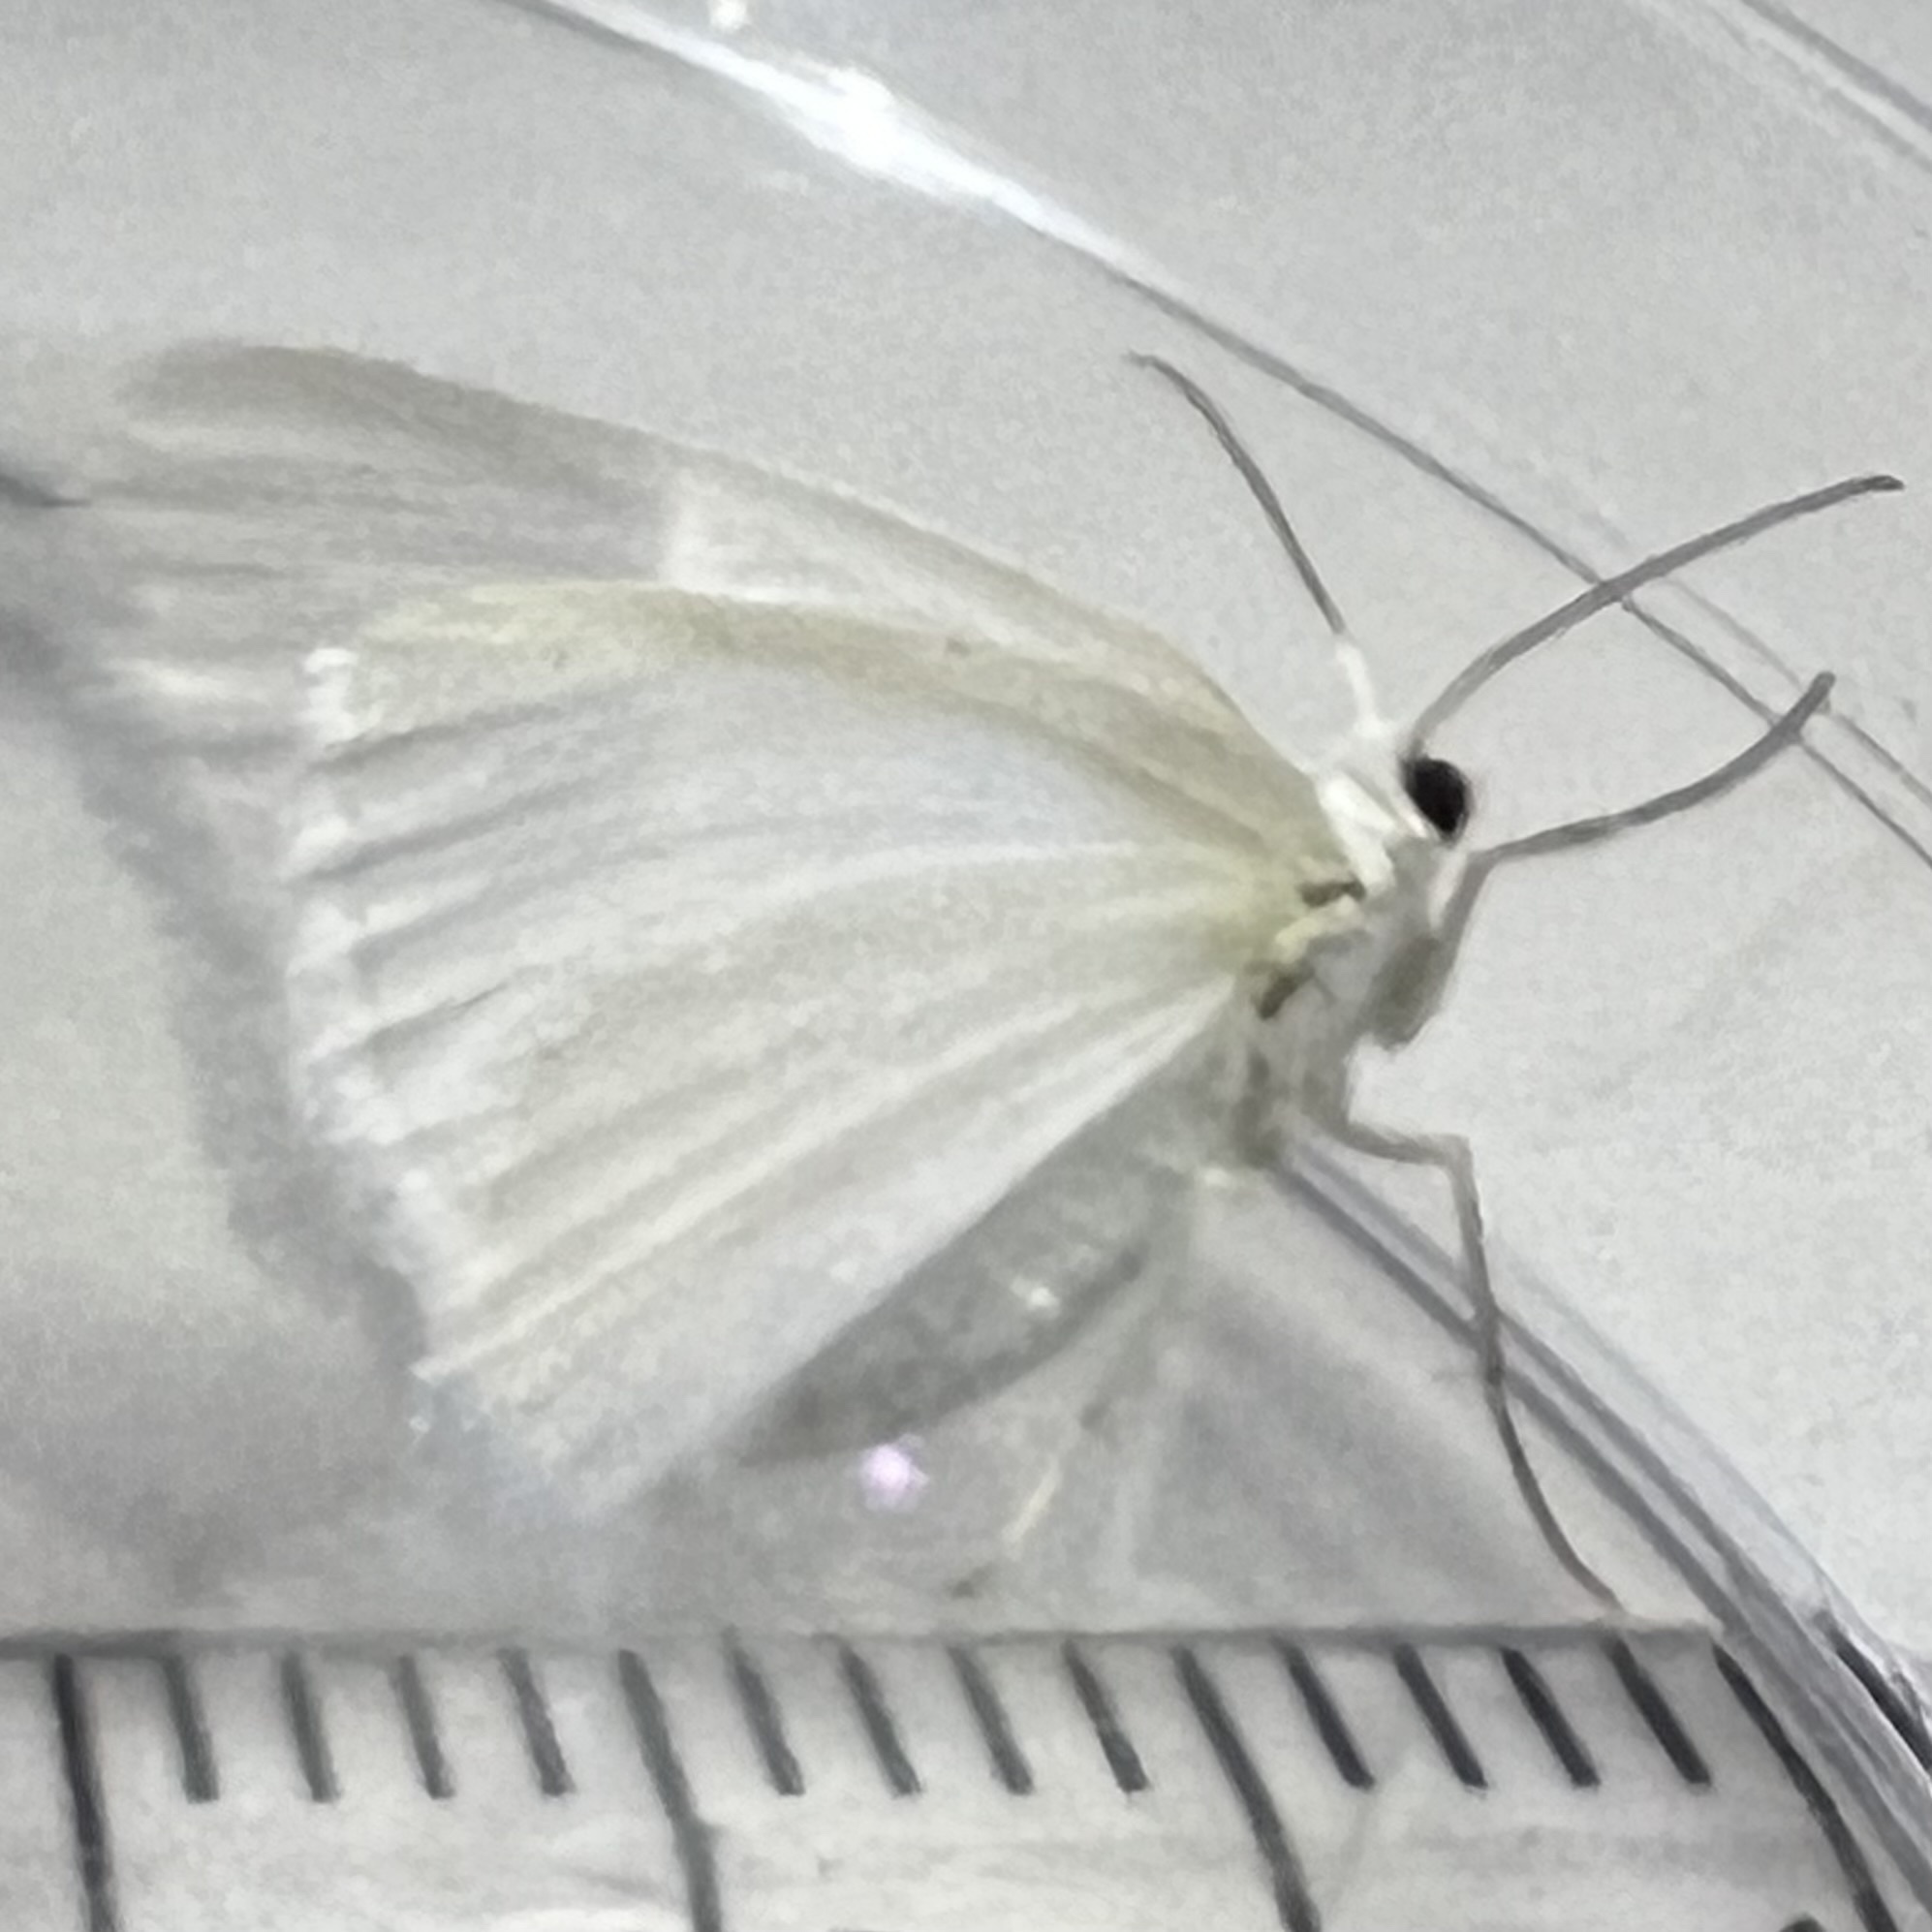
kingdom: Animalia
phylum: Arthropoda
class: Insecta
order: Lepidoptera
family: Geometridae
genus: Lomographa
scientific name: Lomographa vestaliata
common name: White spring moth
